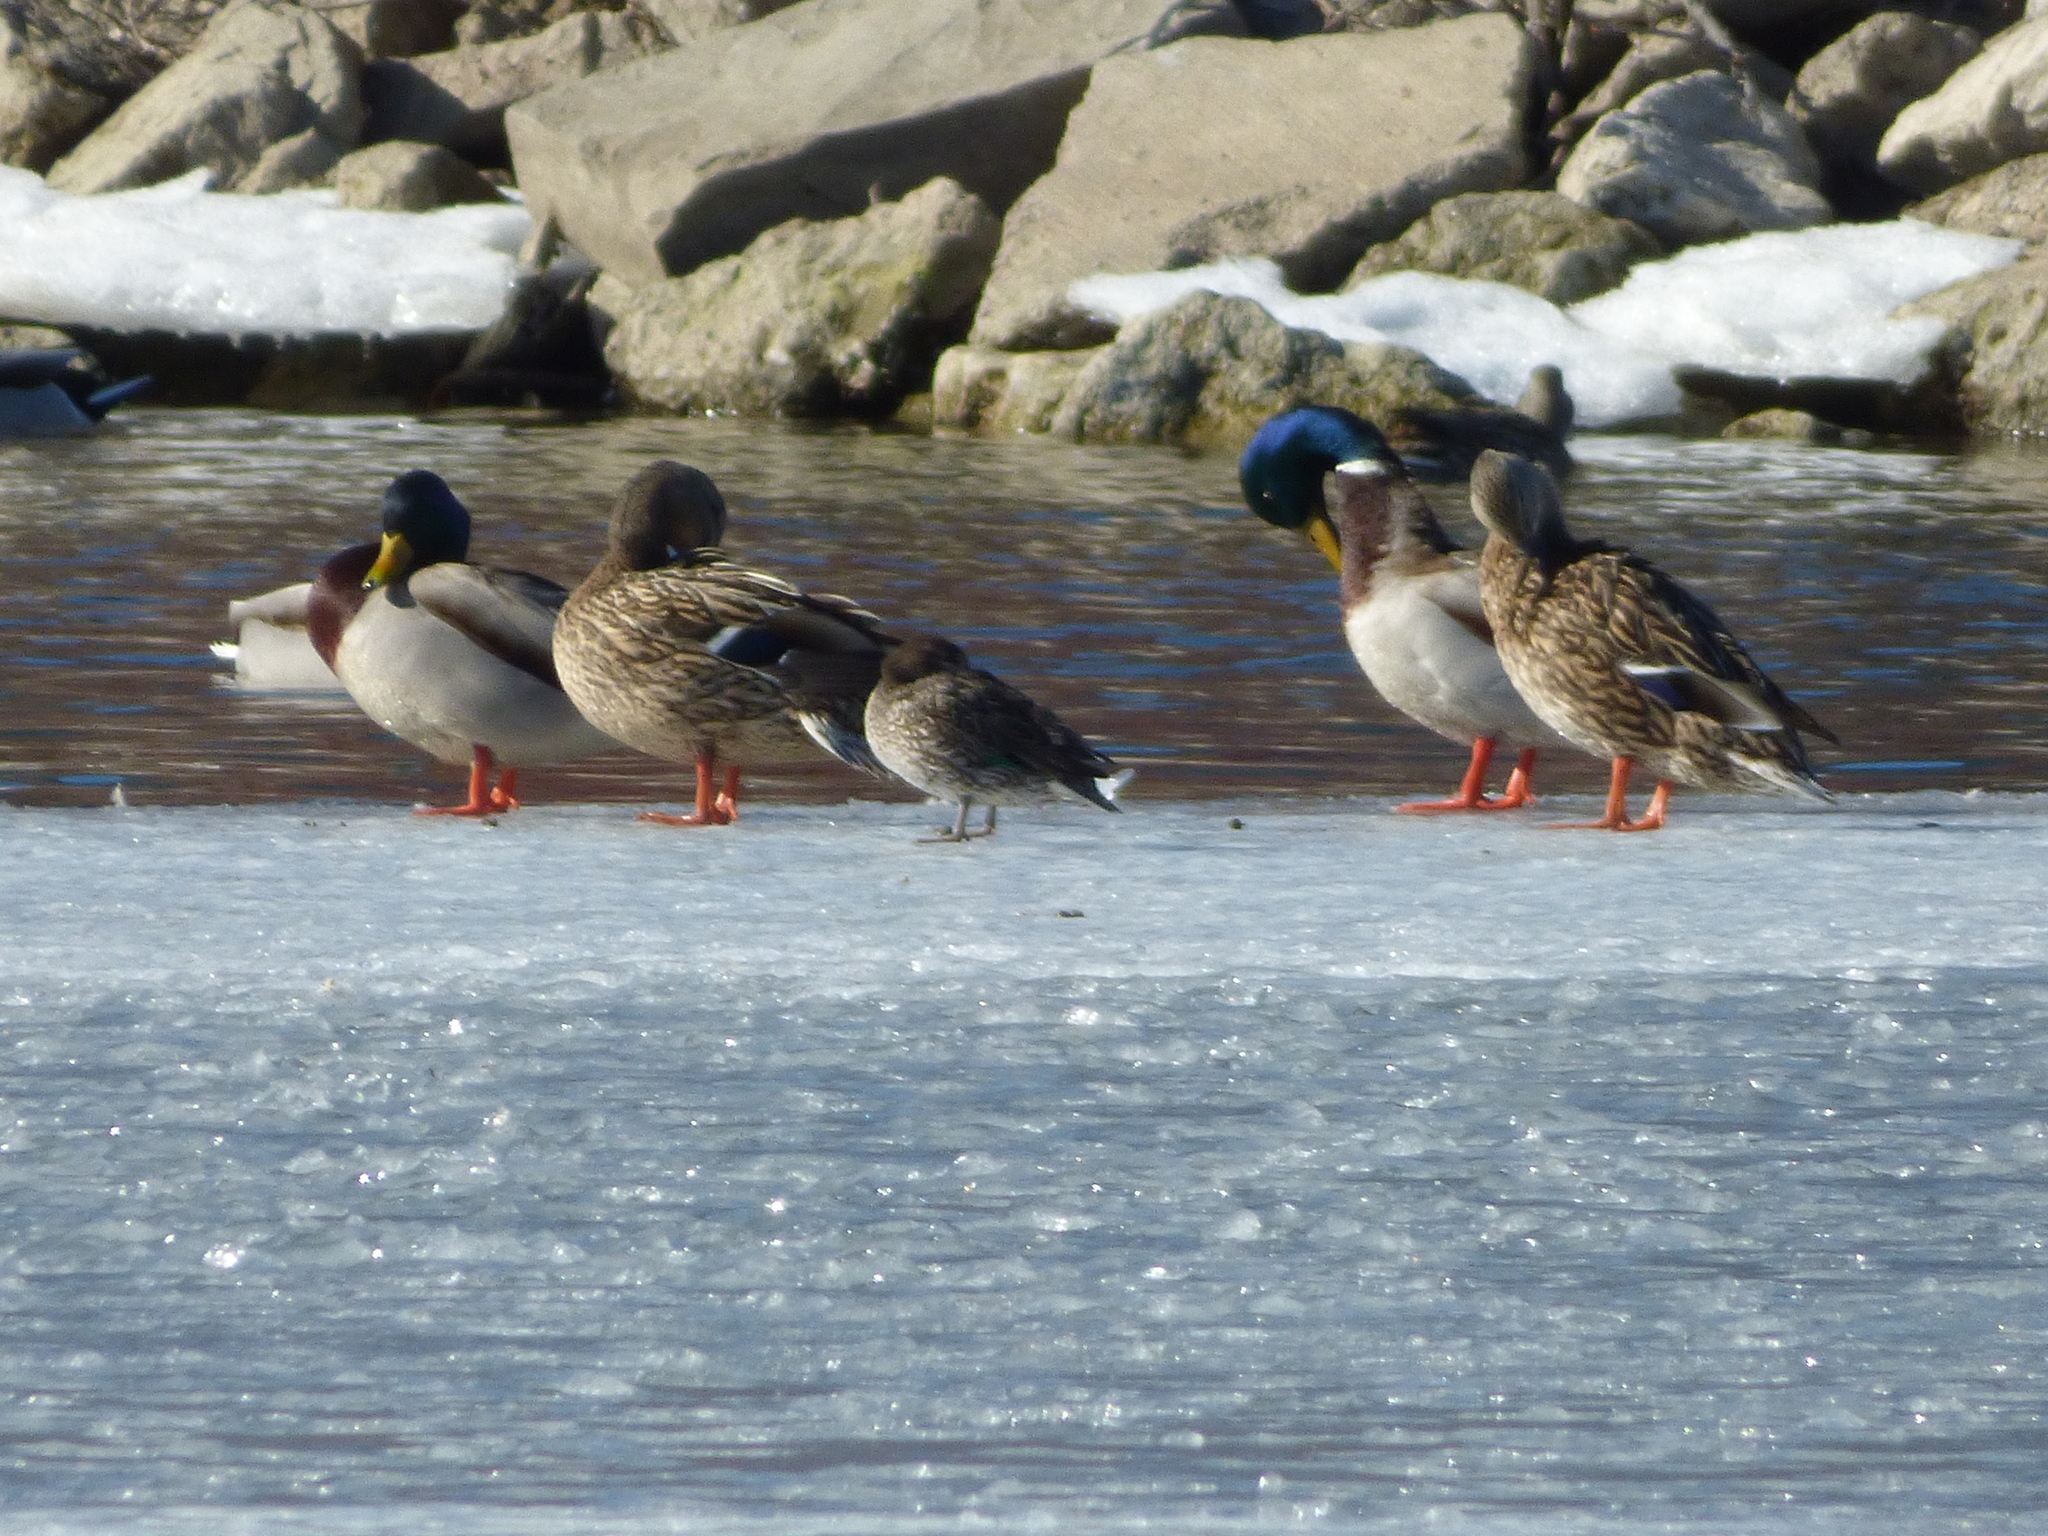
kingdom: Animalia
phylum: Chordata
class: Aves
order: Anseriformes
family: Anatidae
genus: Anas
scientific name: Anas crecca
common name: Eurasian teal
